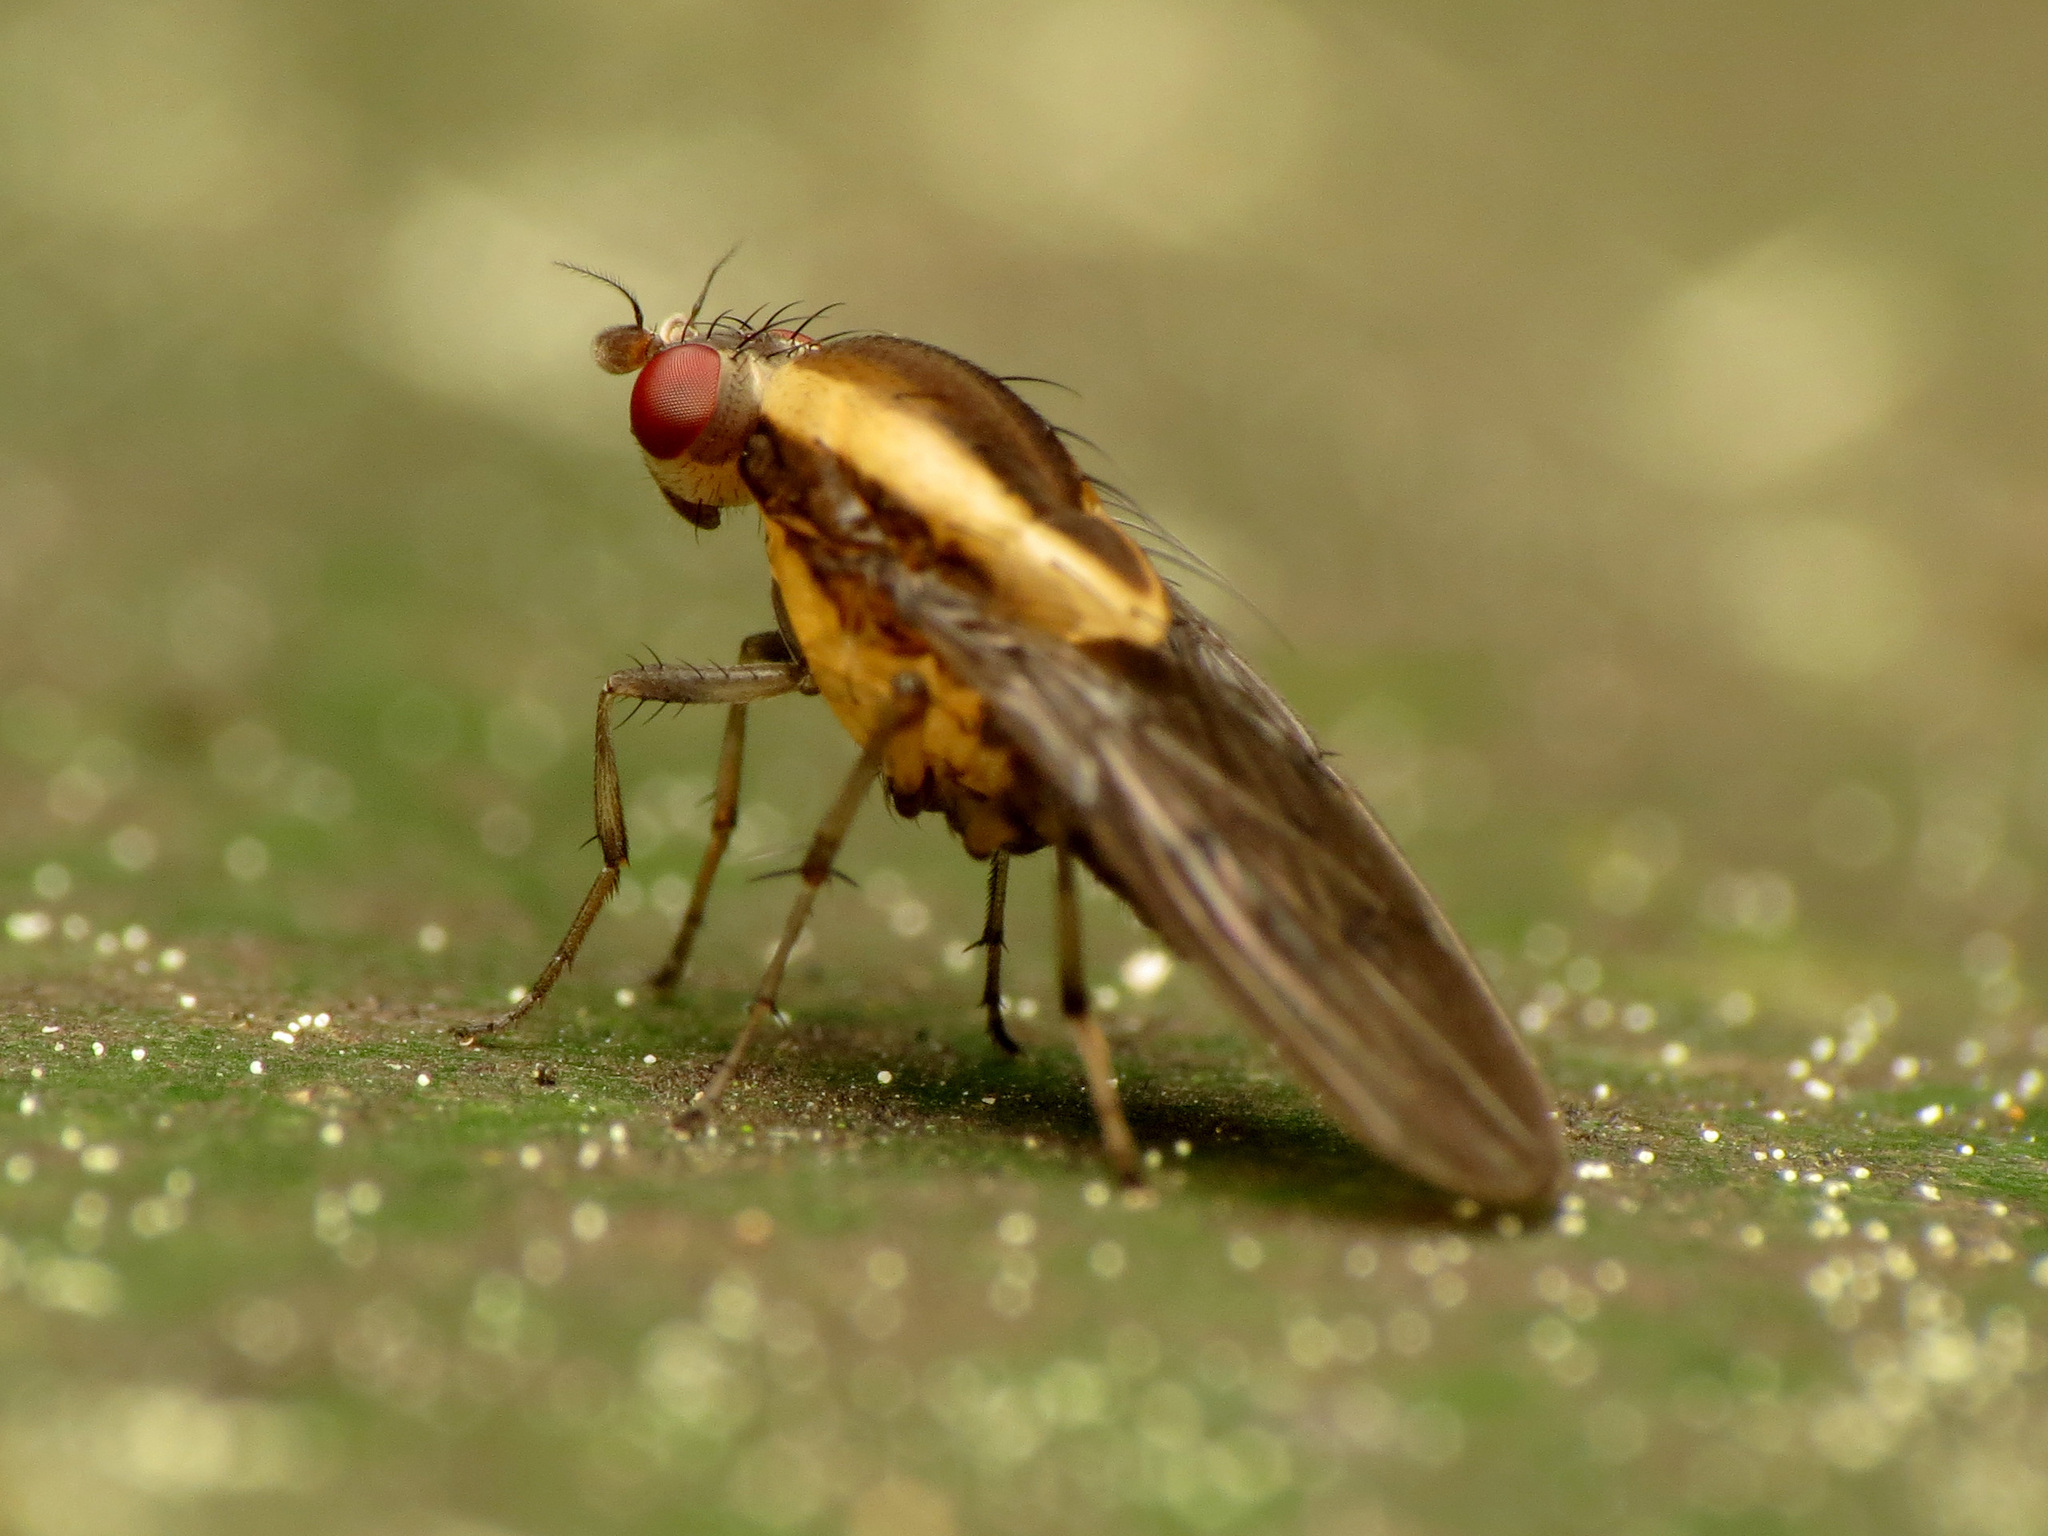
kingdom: Animalia
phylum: Arthropoda
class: Insecta
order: Diptera
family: Heleomyzidae
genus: Allophylopsis
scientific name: Allophylopsis scutellata
